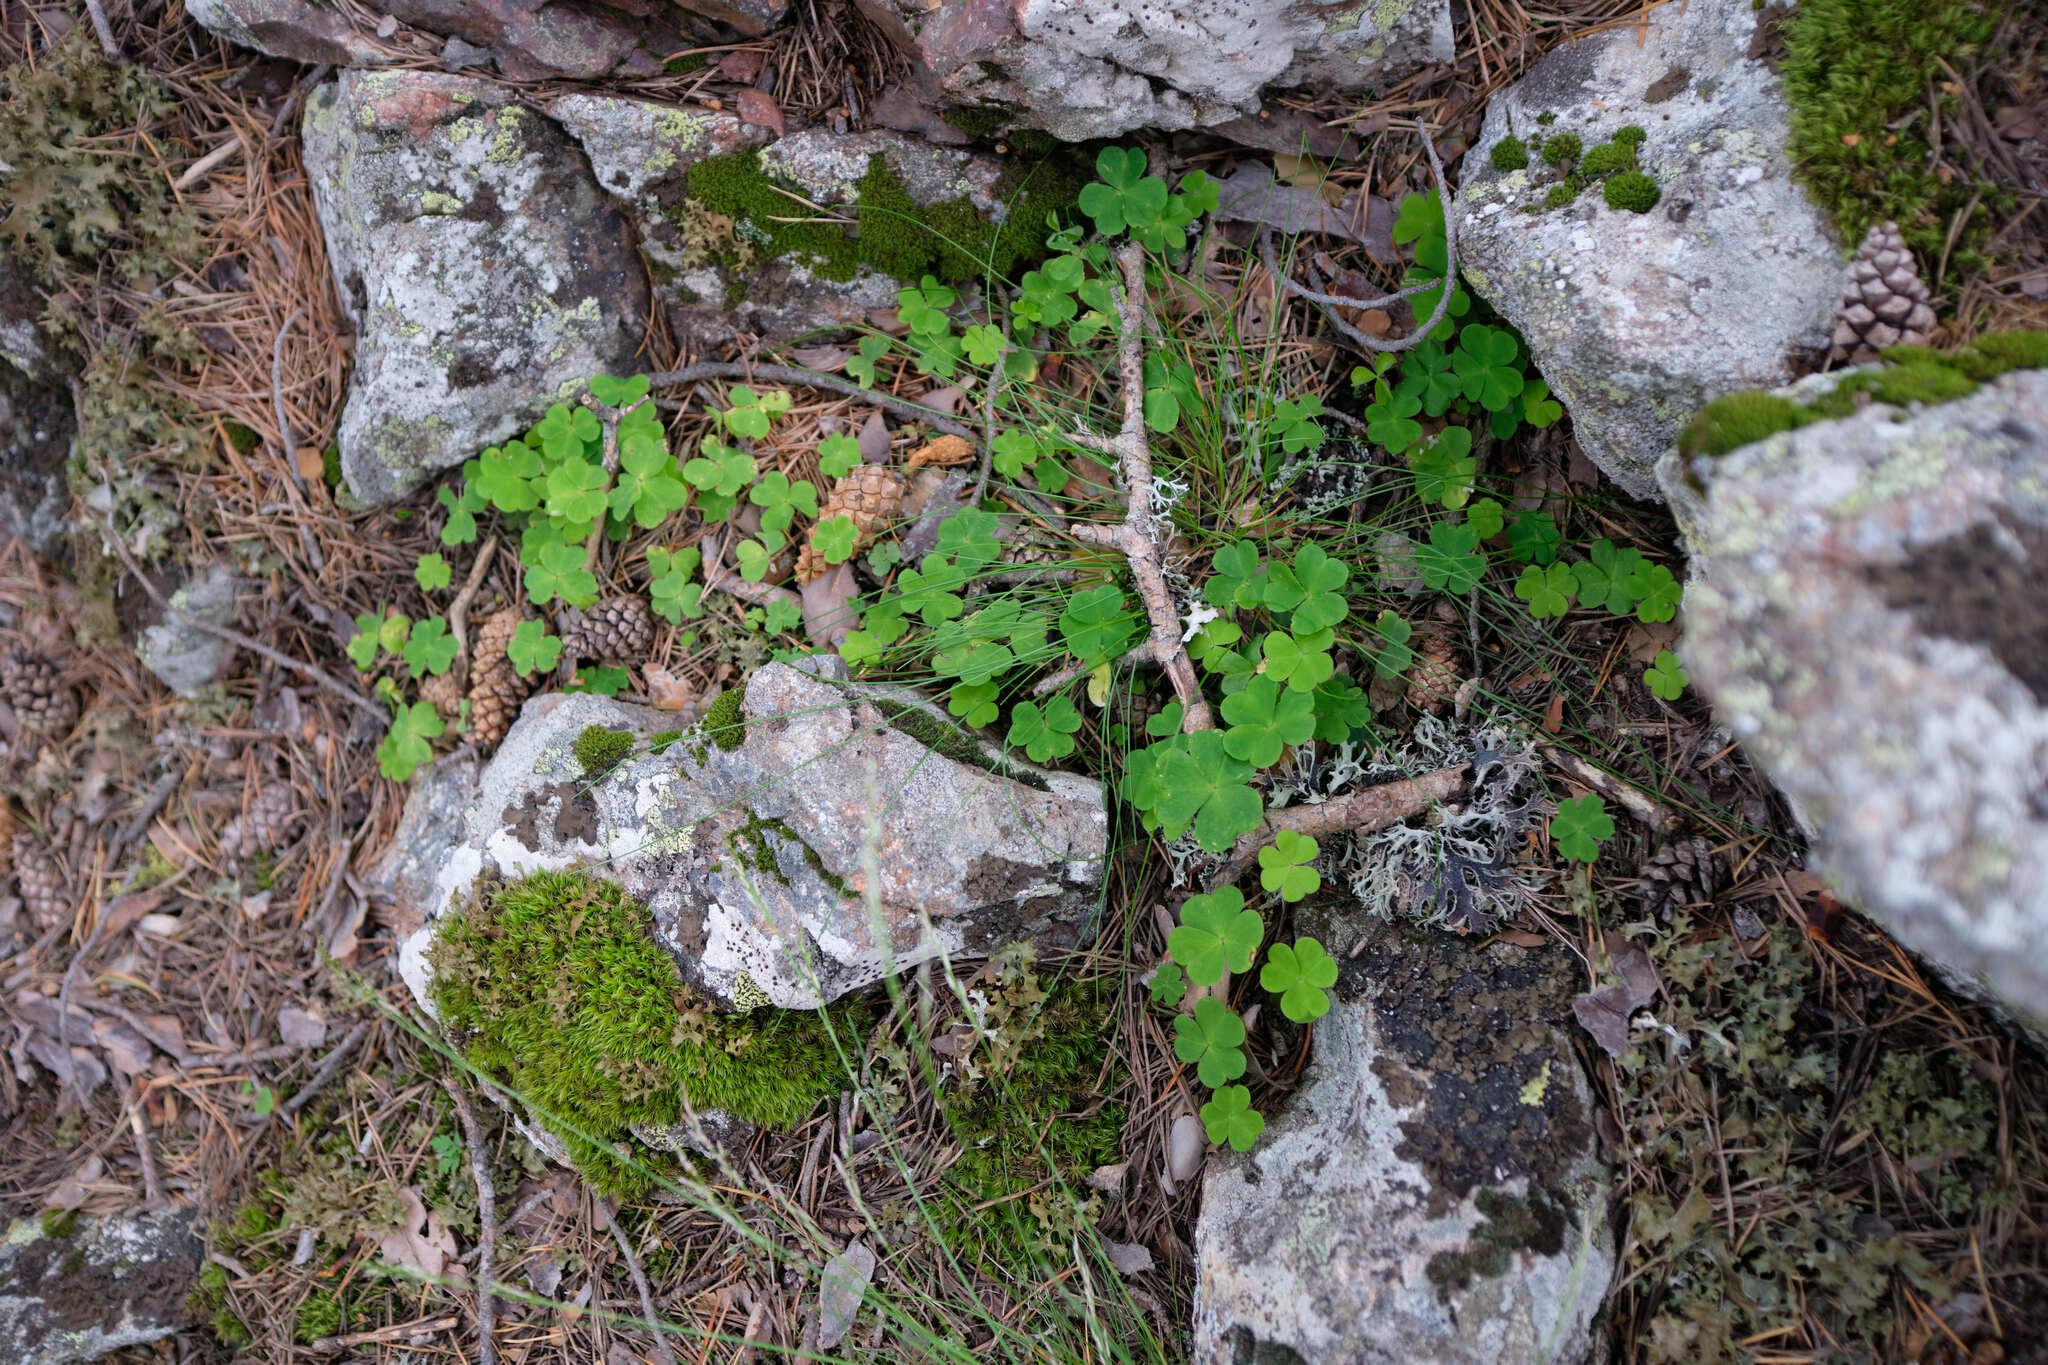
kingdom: Plantae
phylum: Tracheophyta
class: Magnoliopsida
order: Oxalidales
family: Oxalidaceae
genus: Oxalis
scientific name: Oxalis acetosella
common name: Wood-sorrel
